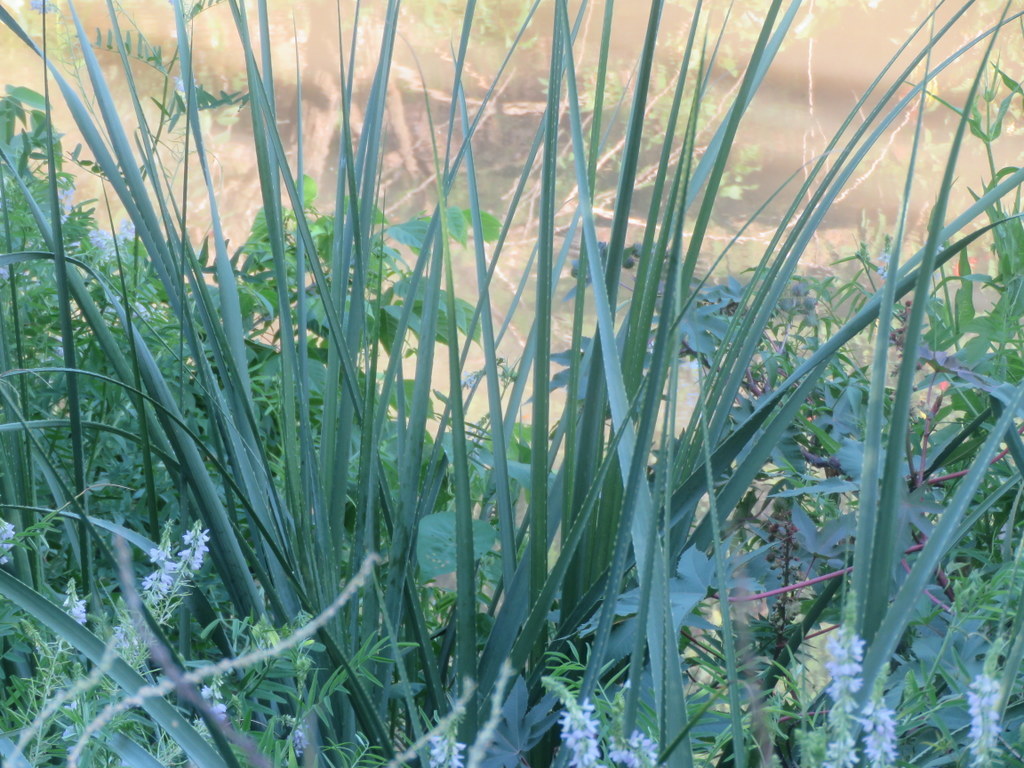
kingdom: Plantae
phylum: Tracheophyta
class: Magnoliopsida
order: Apiales
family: Apiaceae
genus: Eryngium
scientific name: Eryngium pandanifolium
